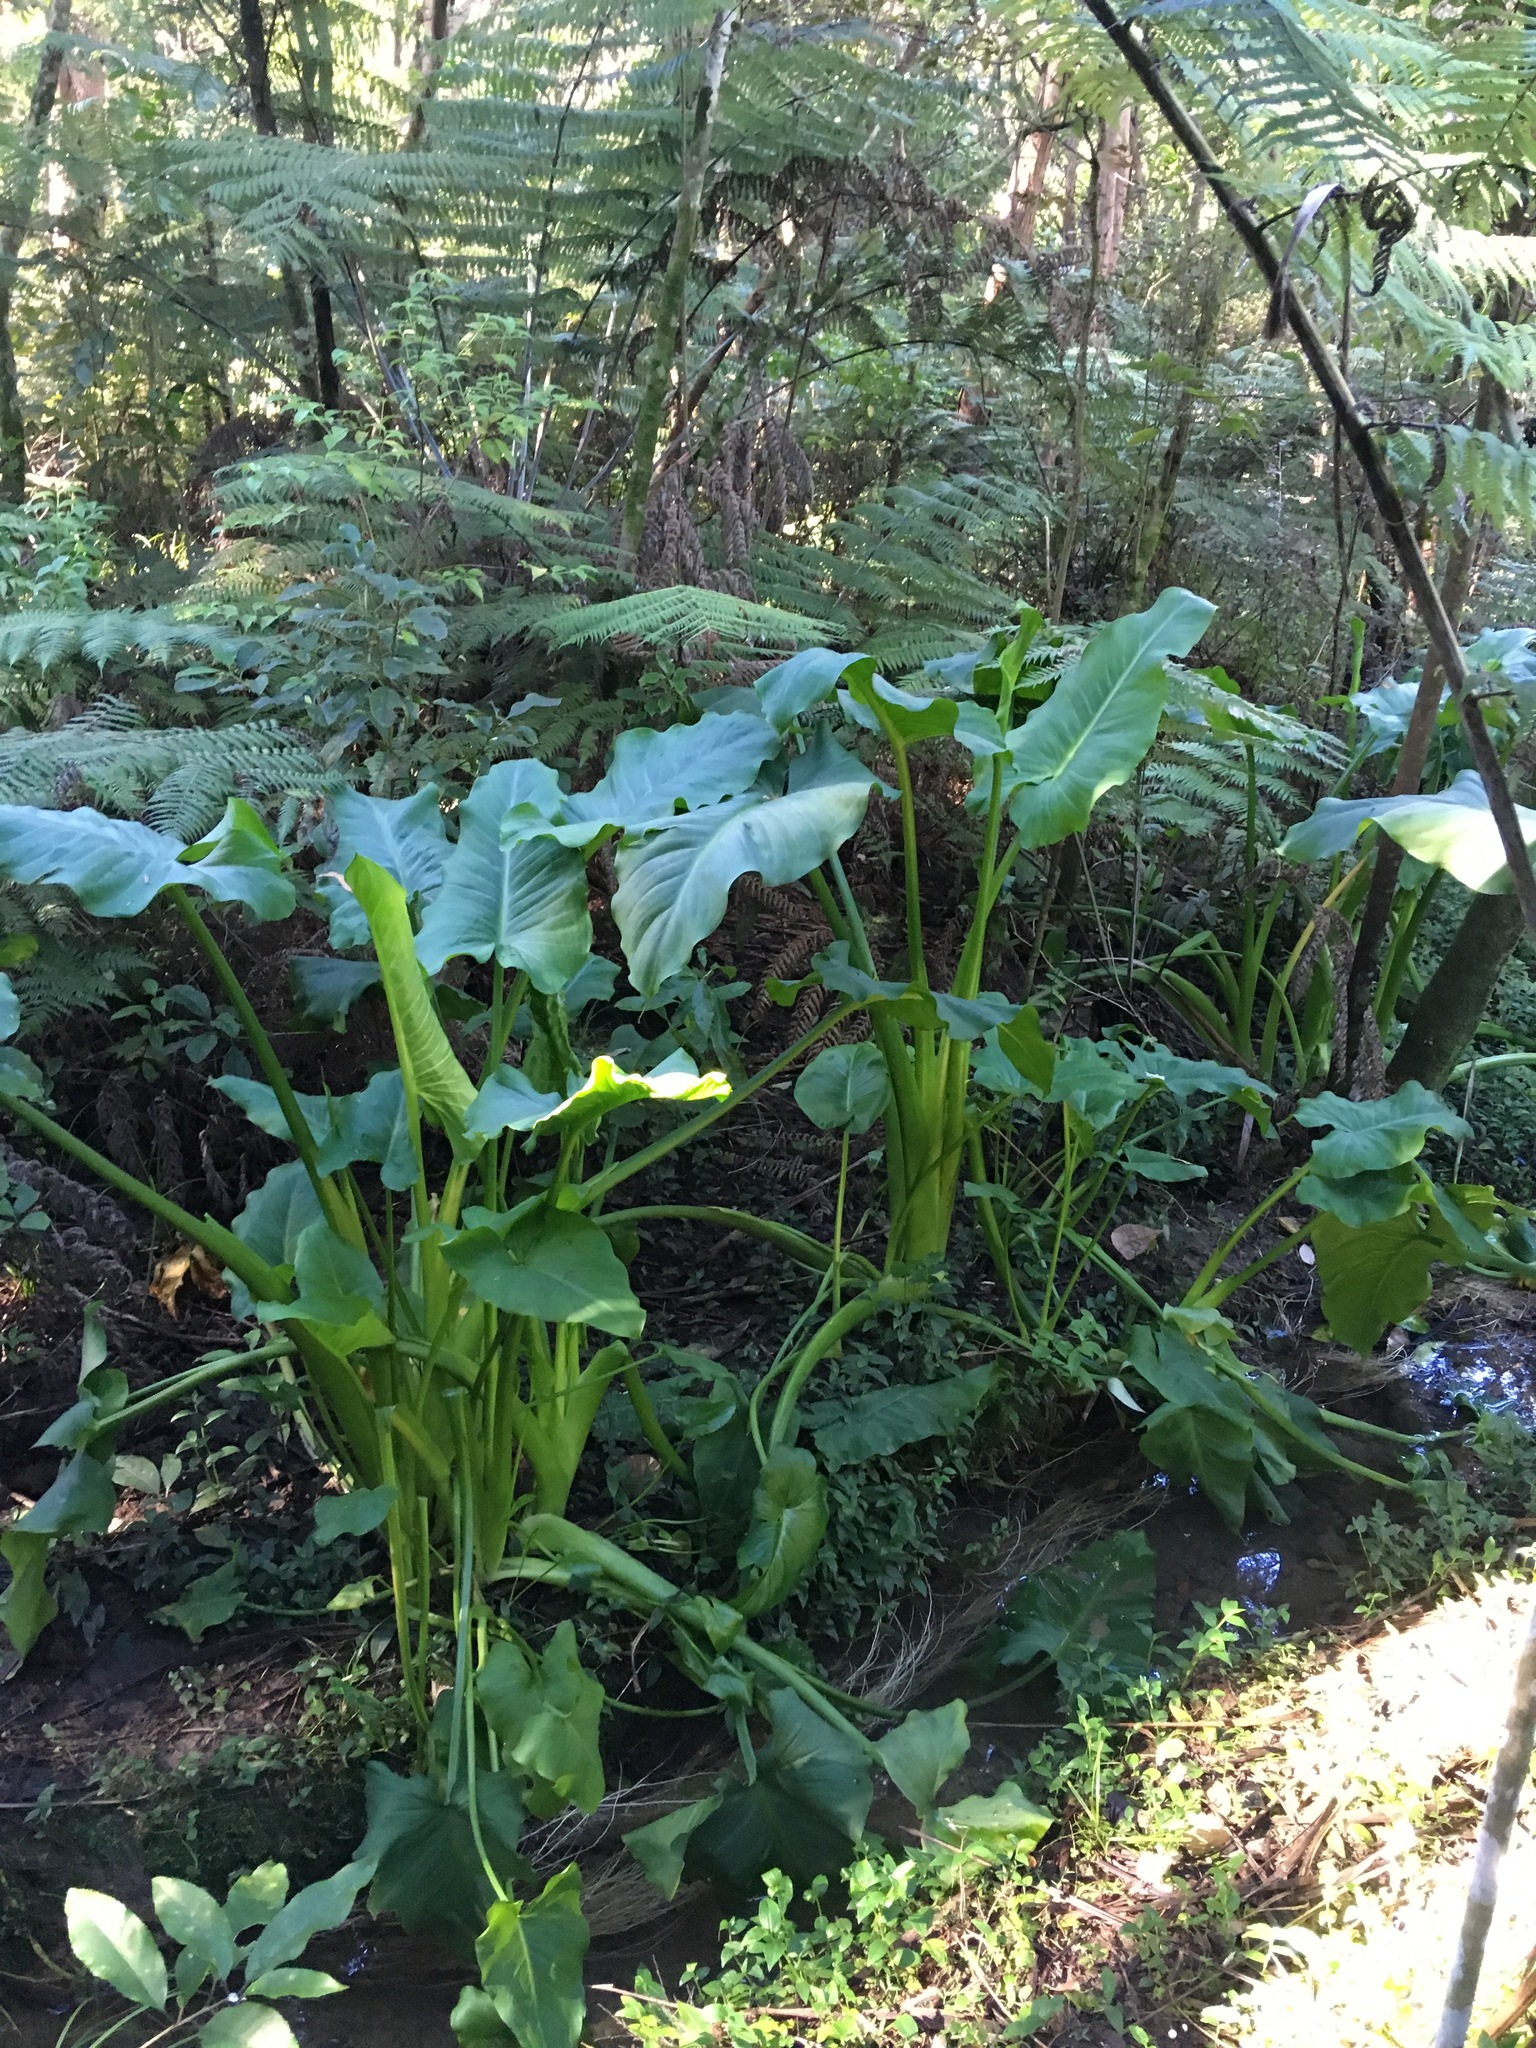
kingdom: Plantae
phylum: Tracheophyta
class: Liliopsida
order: Alismatales
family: Araceae
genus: Zantedeschia
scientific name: Zantedeschia aethiopica
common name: Altar-lily
